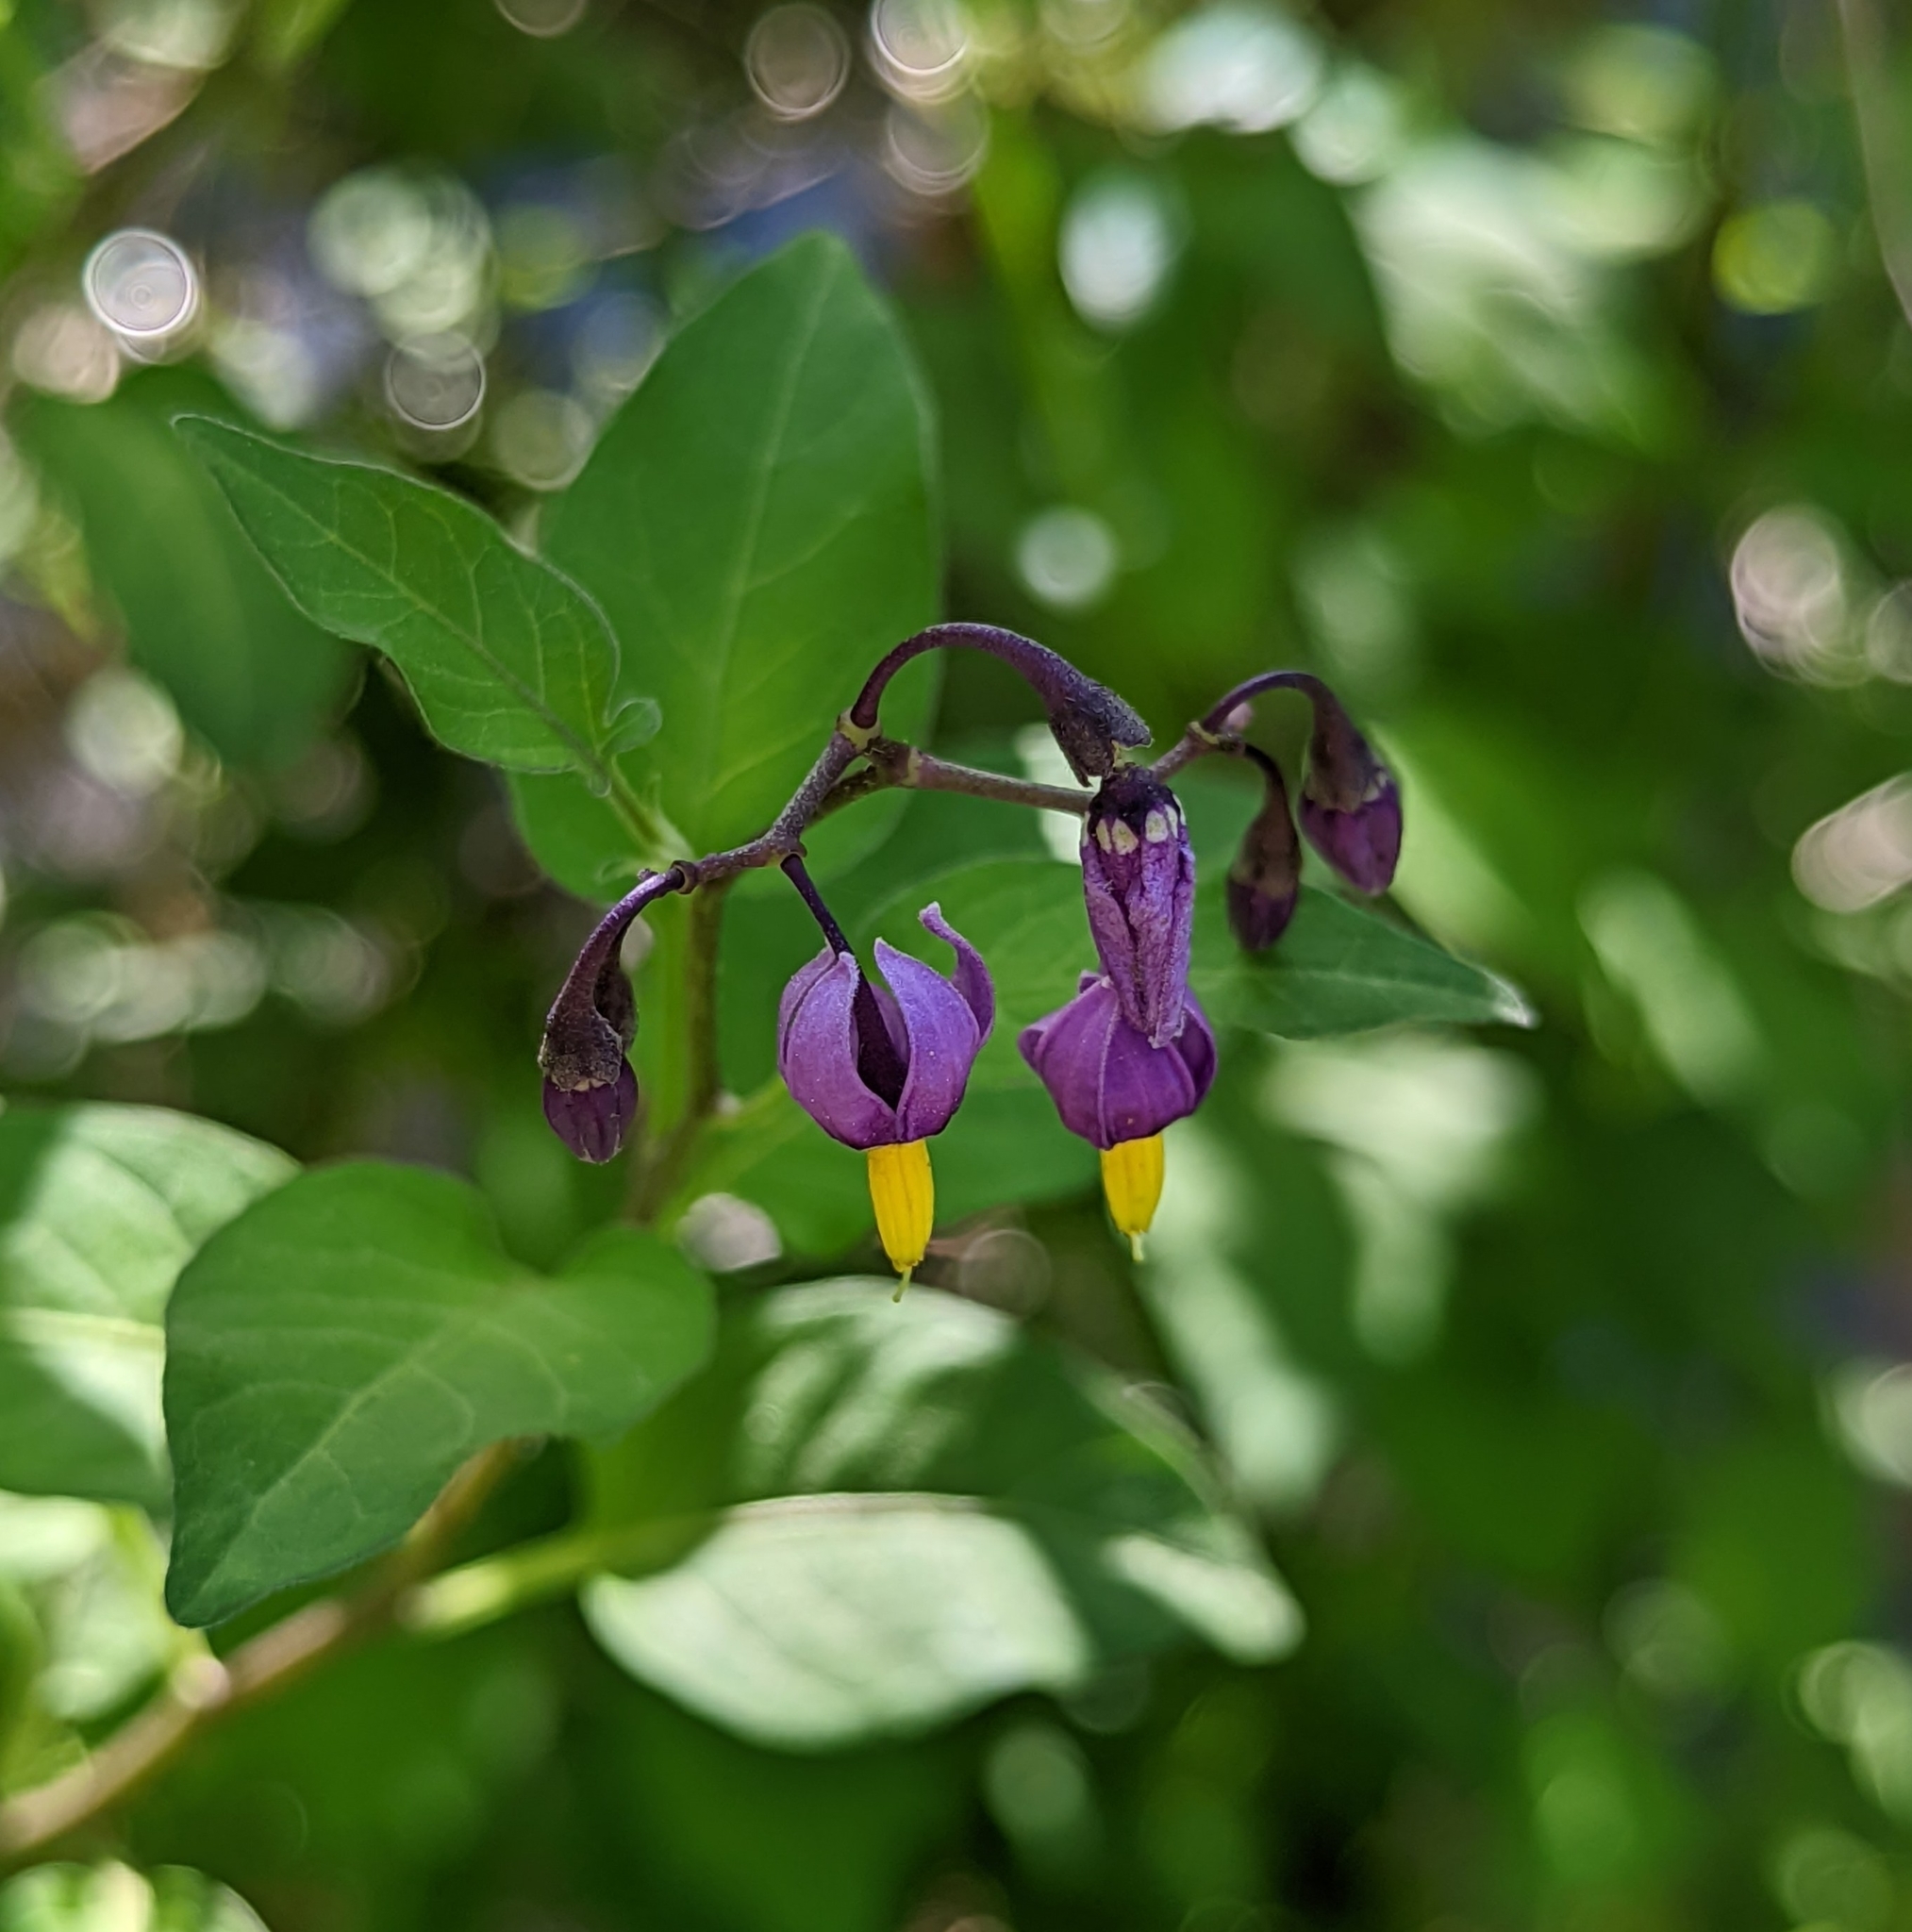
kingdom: Plantae
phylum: Tracheophyta
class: Magnoliopsida
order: Solanales
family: Solanaceae
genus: Solanum
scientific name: Solanum dulcamara
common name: Climbing nightshade
